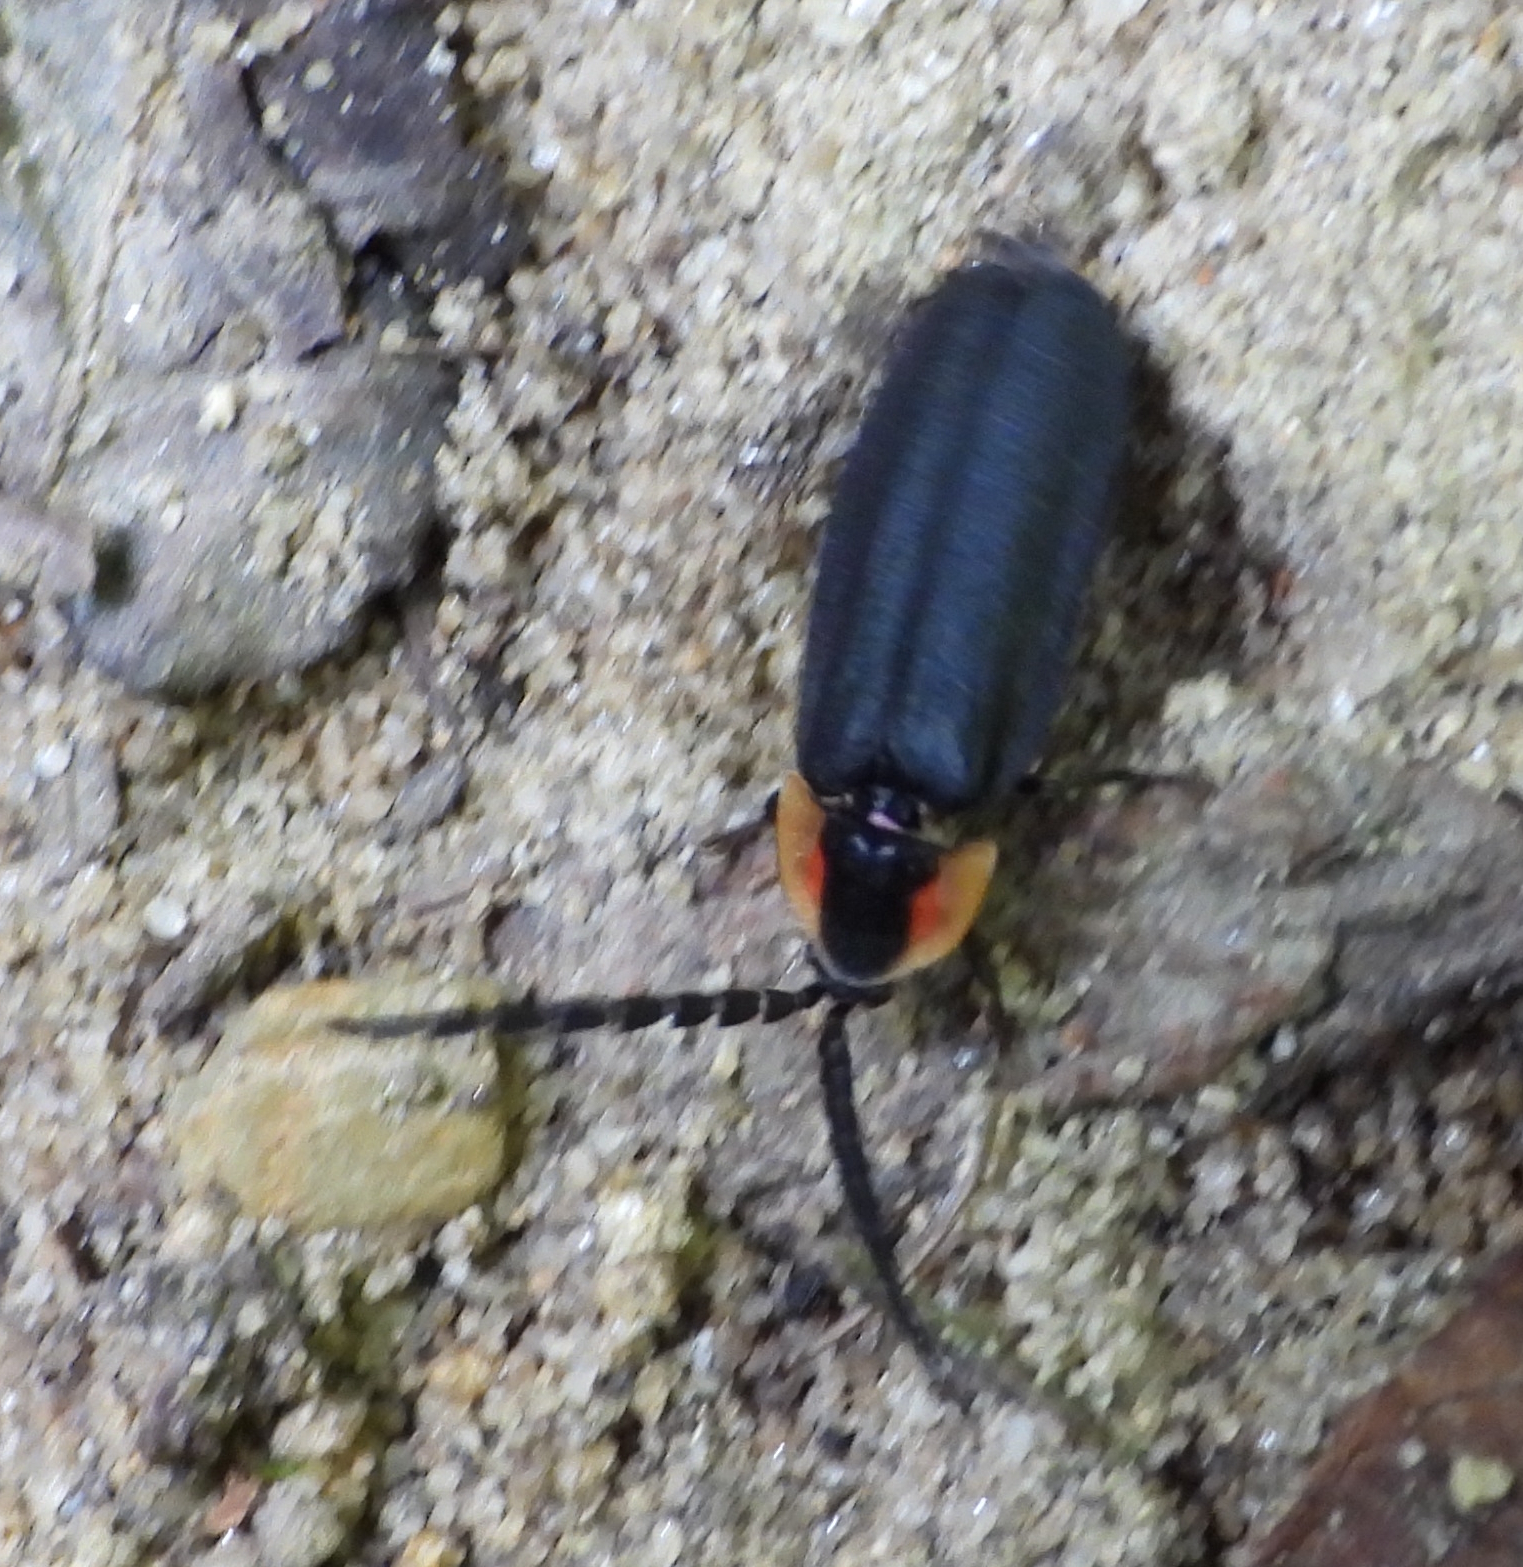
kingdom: Animalia
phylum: Arthropoda
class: Insecta
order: Coleoptera
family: Lampyridae
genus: Lucidota
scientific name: Lucidota atra
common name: Black firefly
